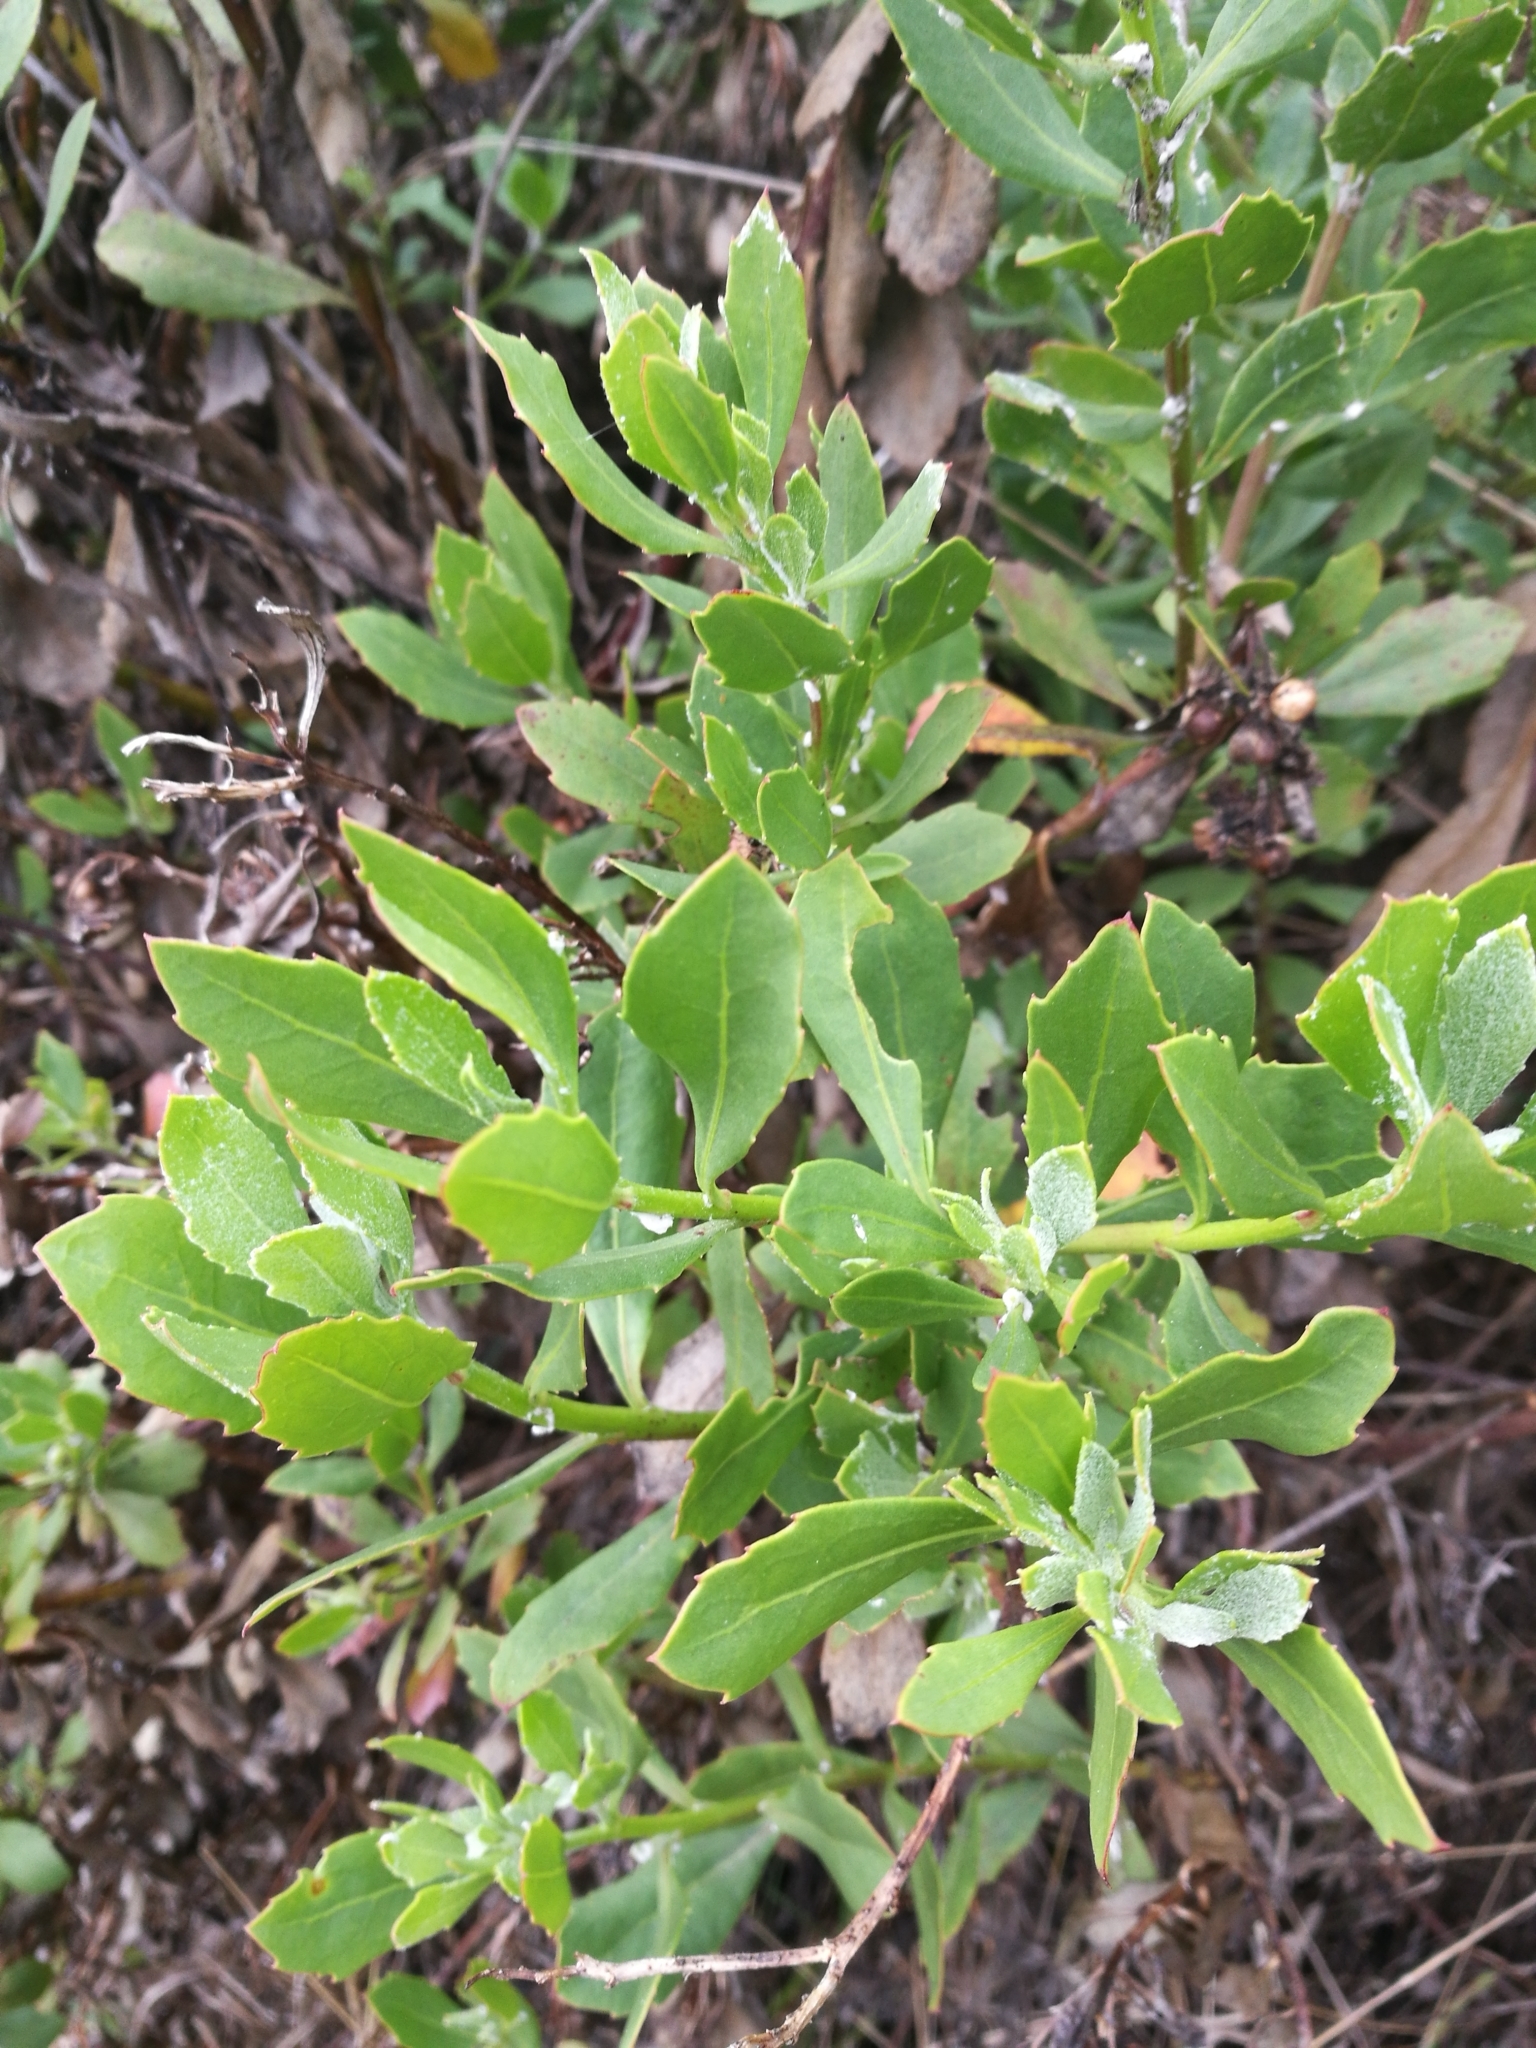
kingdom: Plantae
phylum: Tracheophyta
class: Magnoliopsida
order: Asterales
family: Asteraceae
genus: Osteospermum
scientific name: Osteospermum moniliferum
